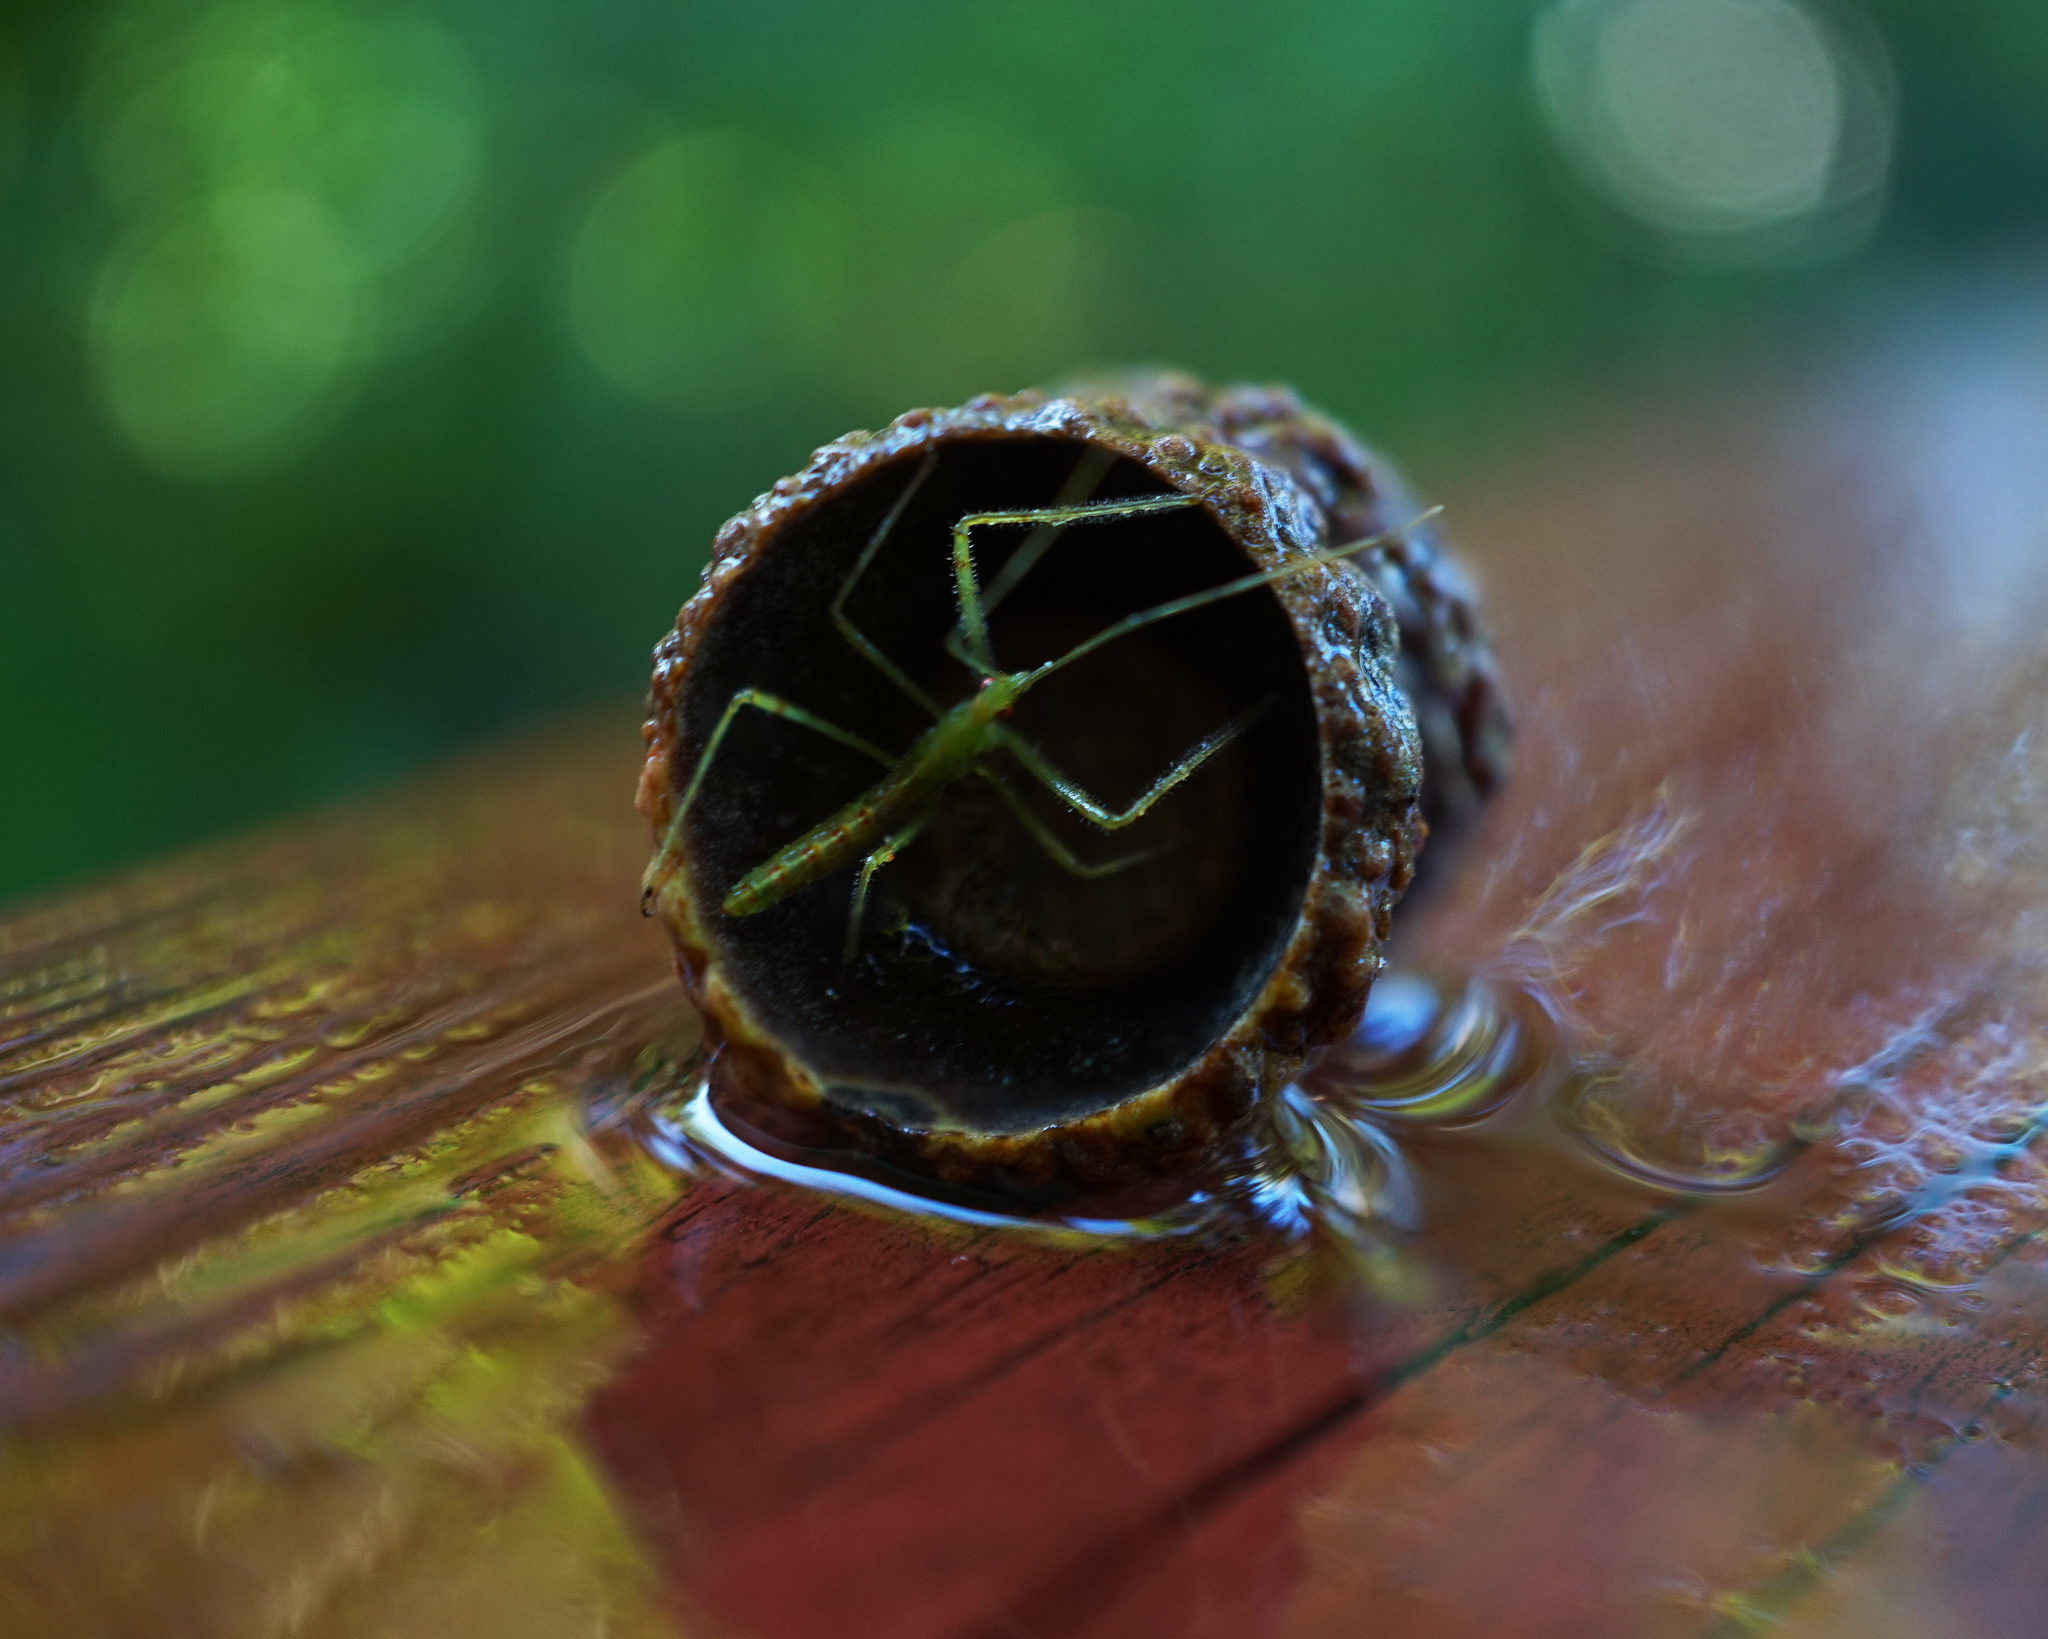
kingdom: Animalia
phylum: Arthropoda
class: Insecta
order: Hemiptera
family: Reduviidae
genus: Zelus
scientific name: Zelus luridus
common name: Pale green assassin bug
